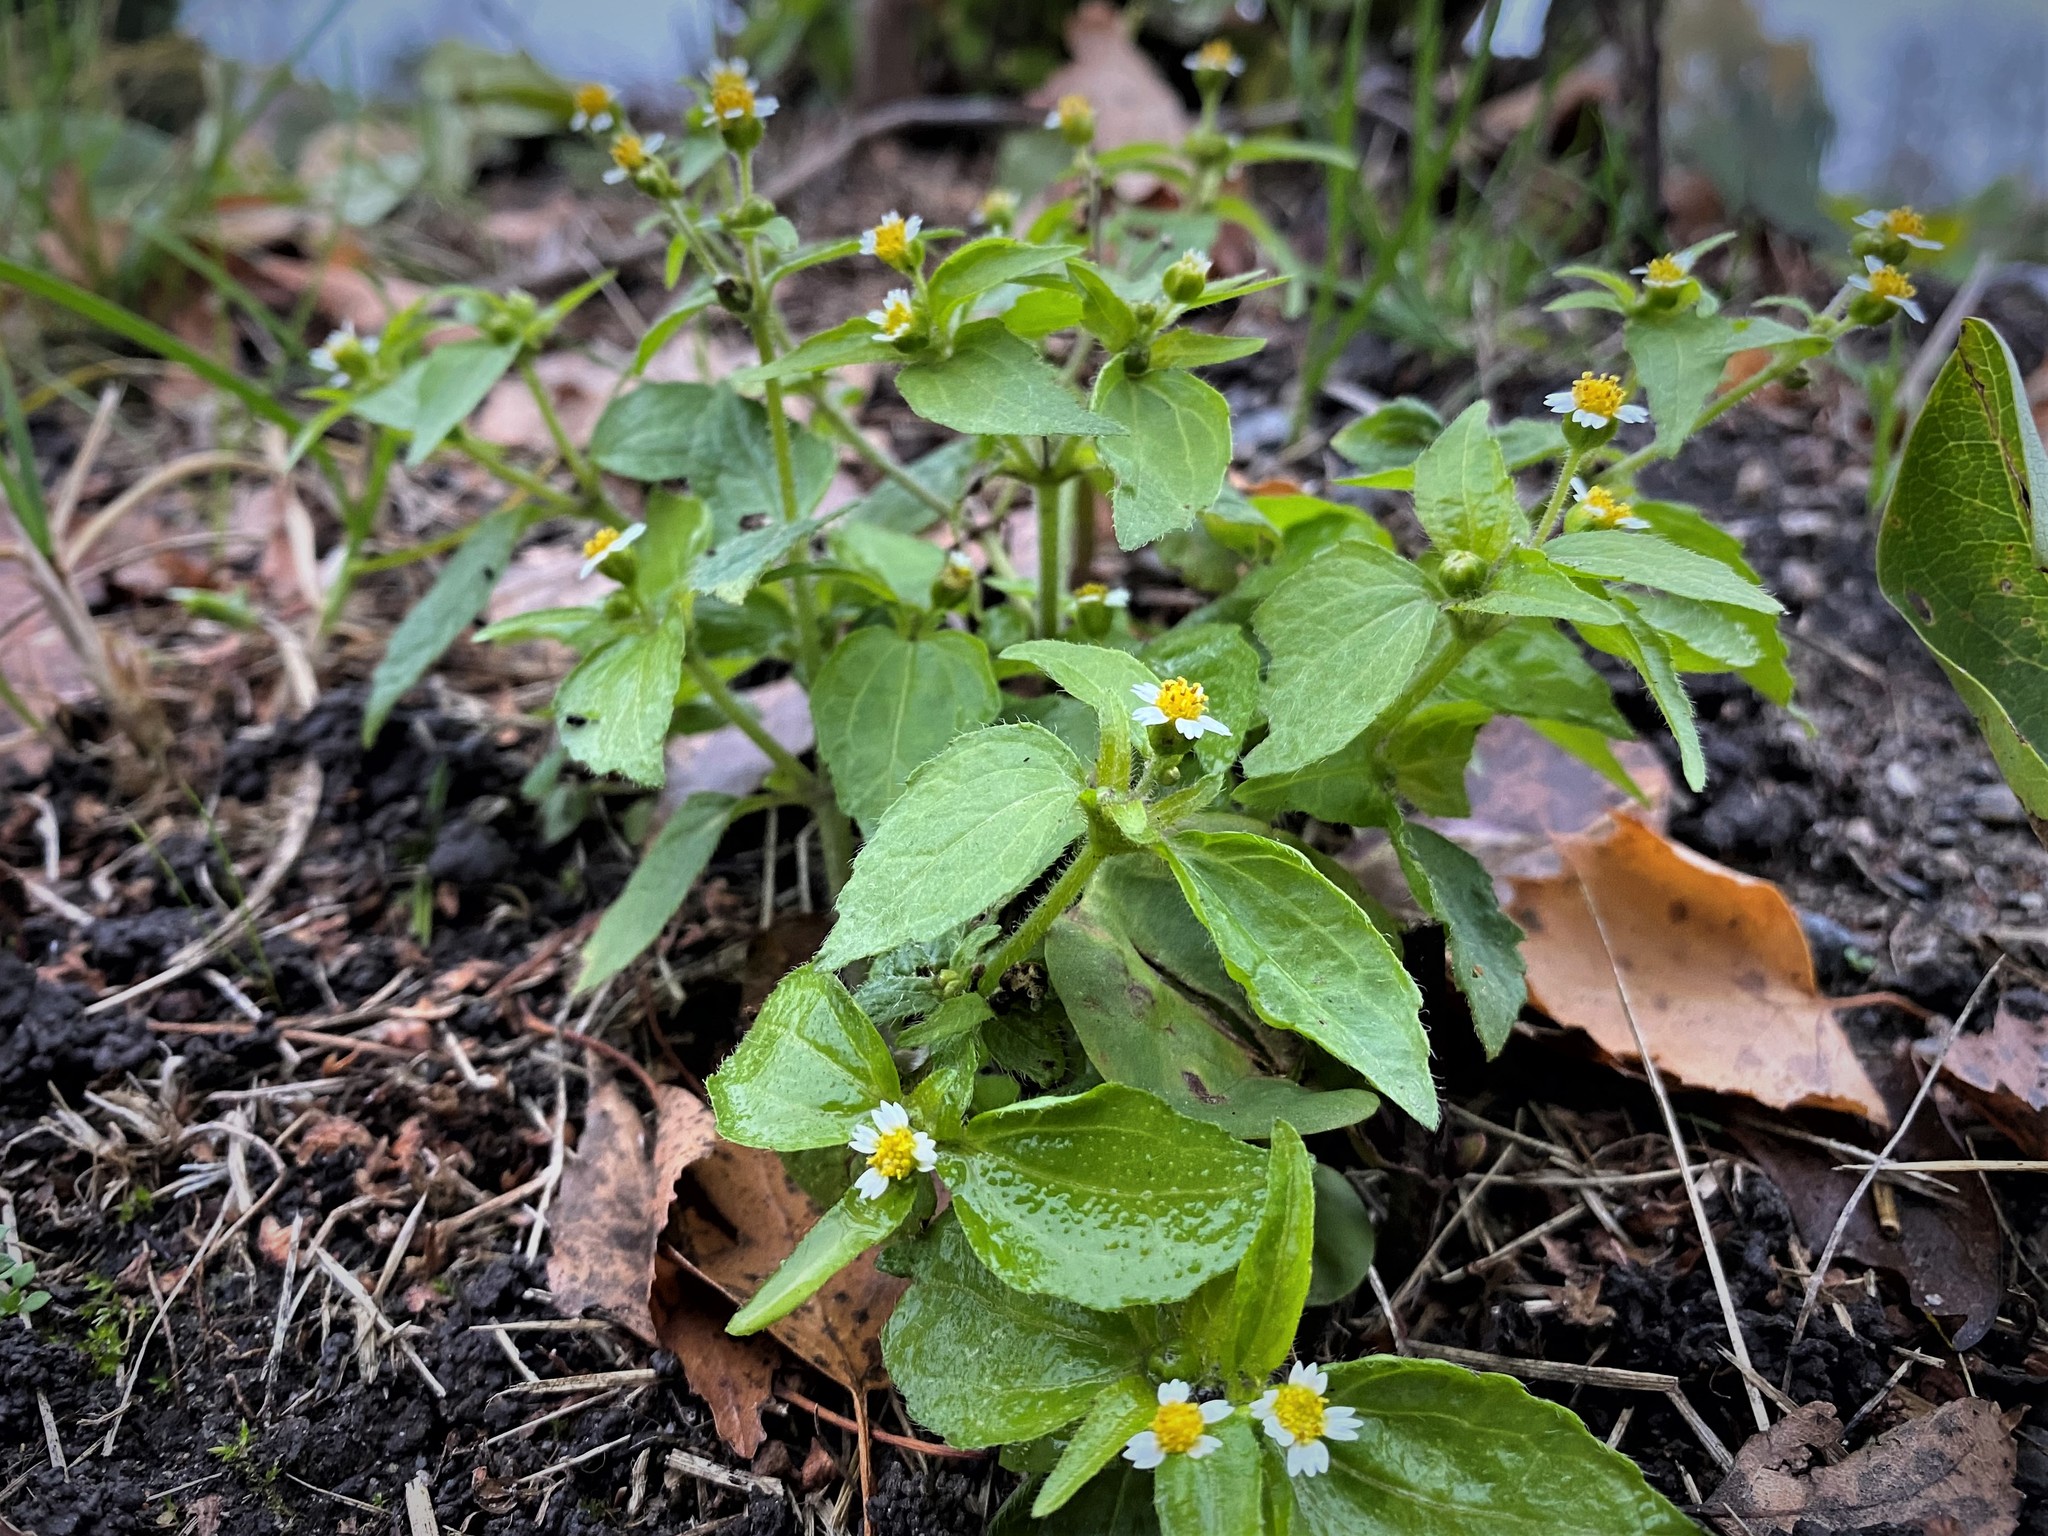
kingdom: Plantae
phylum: Tracheophyta
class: Magnoliopsida
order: Asterales
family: Asteraceae
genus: Galinsoga
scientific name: Galinsoga quadriradiata
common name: Shaggy soldier
